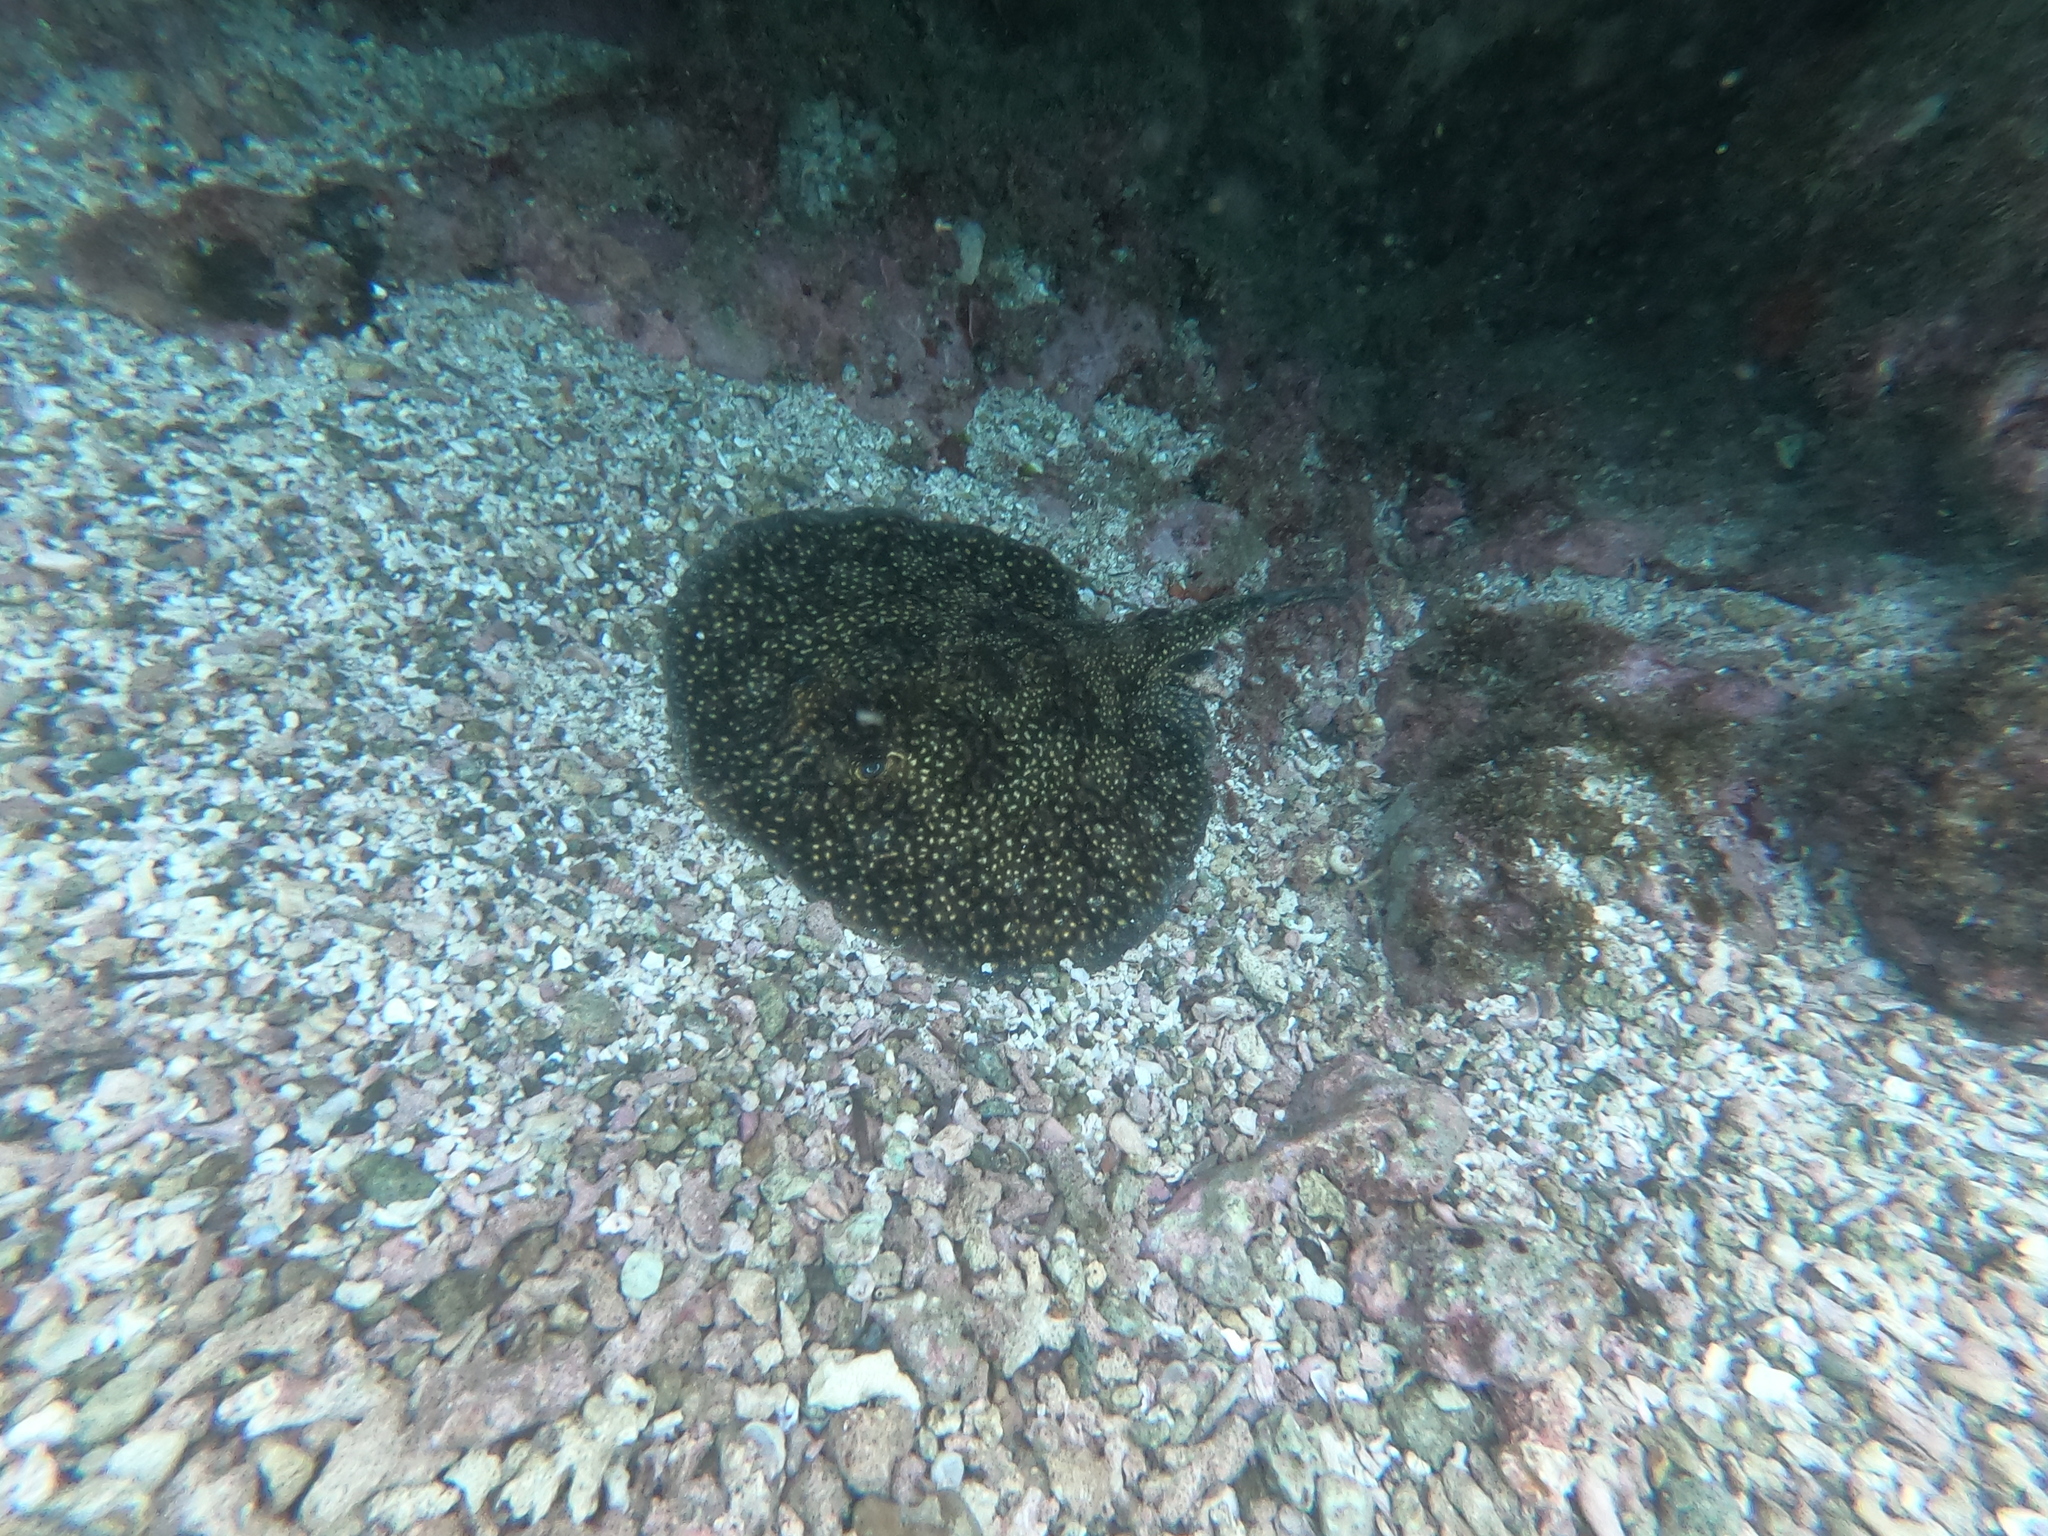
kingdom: Animalia
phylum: Chordata
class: Elasmobranchii
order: Myliobatiformes
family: Urotrygonidae
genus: Urobatis
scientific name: Urobatis tumbesensis
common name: Tumbes round stingray
